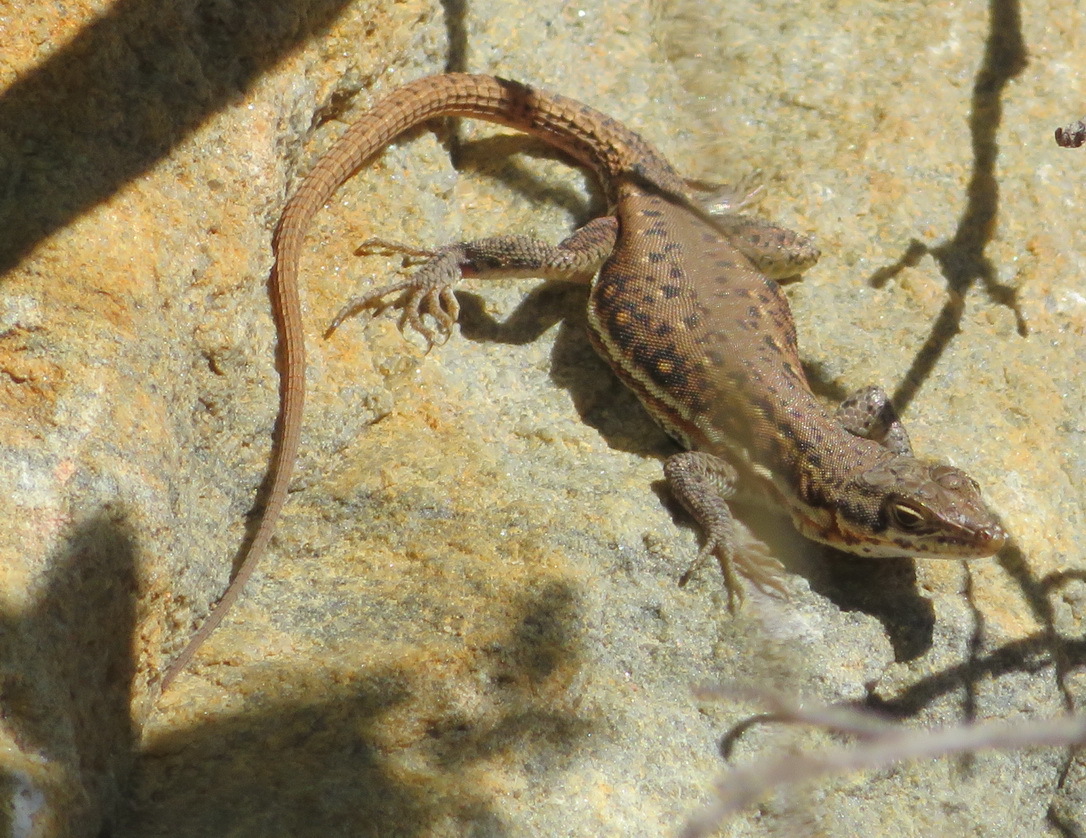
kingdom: Animalia
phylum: Chordata
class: Squamata
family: Lacertidae
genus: Pedioplanis
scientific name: Pedioplanis lineoocellata
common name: Spotted sand lizard
